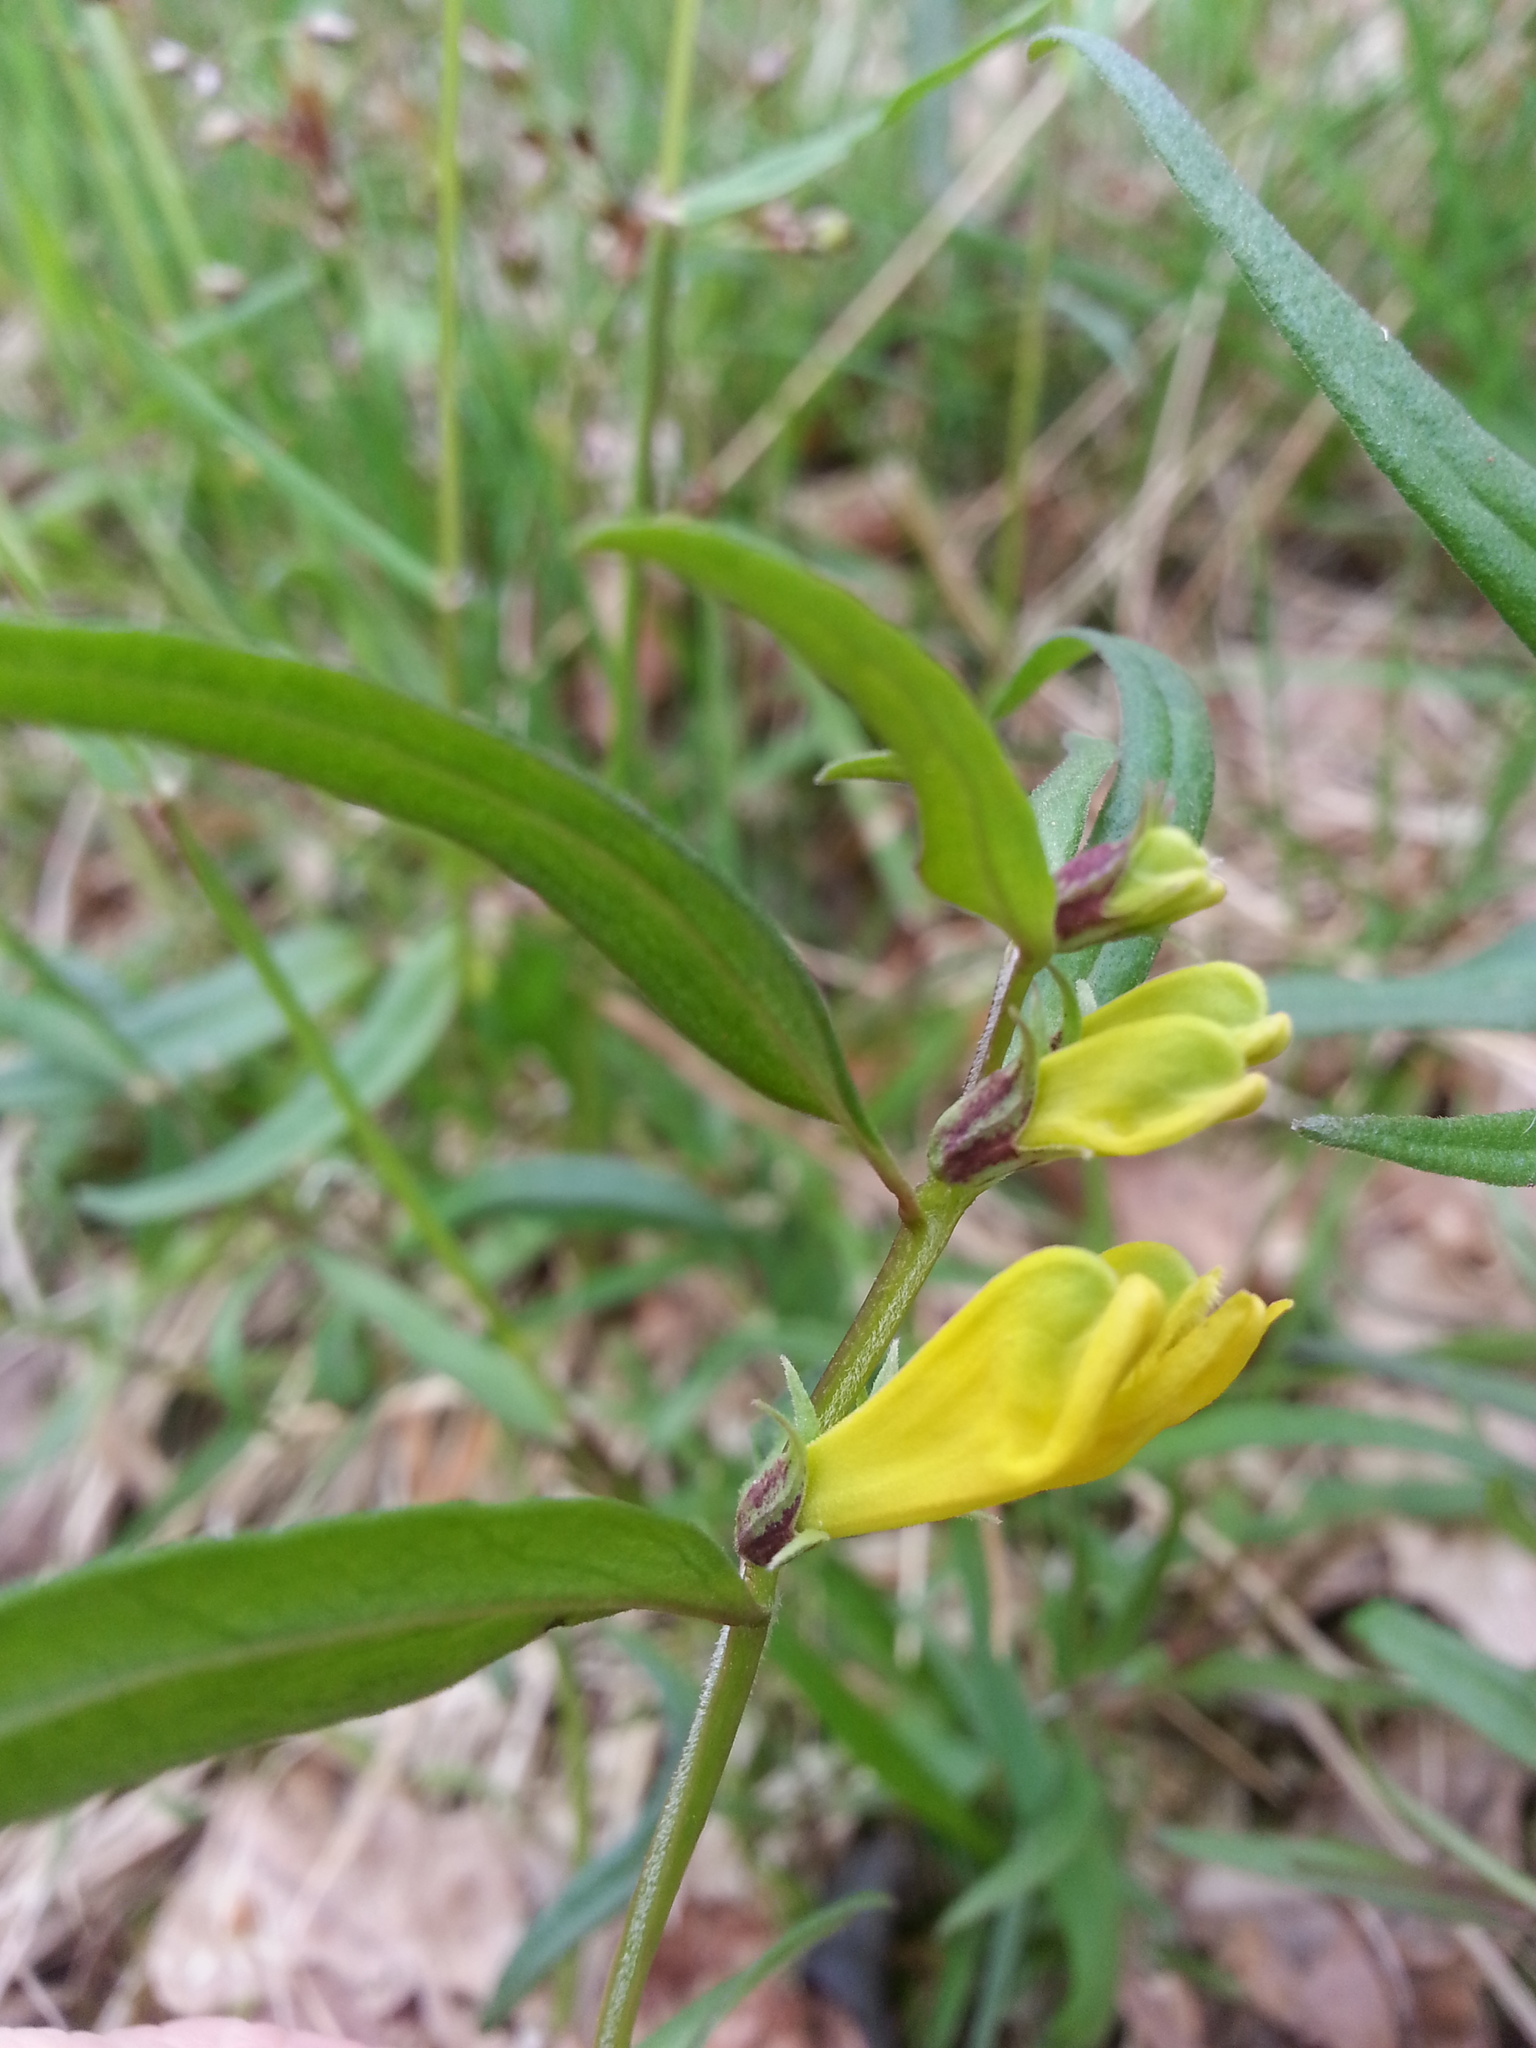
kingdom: Plantae
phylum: Tracheophyta
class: Magnoliopsida
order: Lamiales
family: Orobanchaceae
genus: Melampyrum
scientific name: Melampyrum pratense
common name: Common cow-wheat
